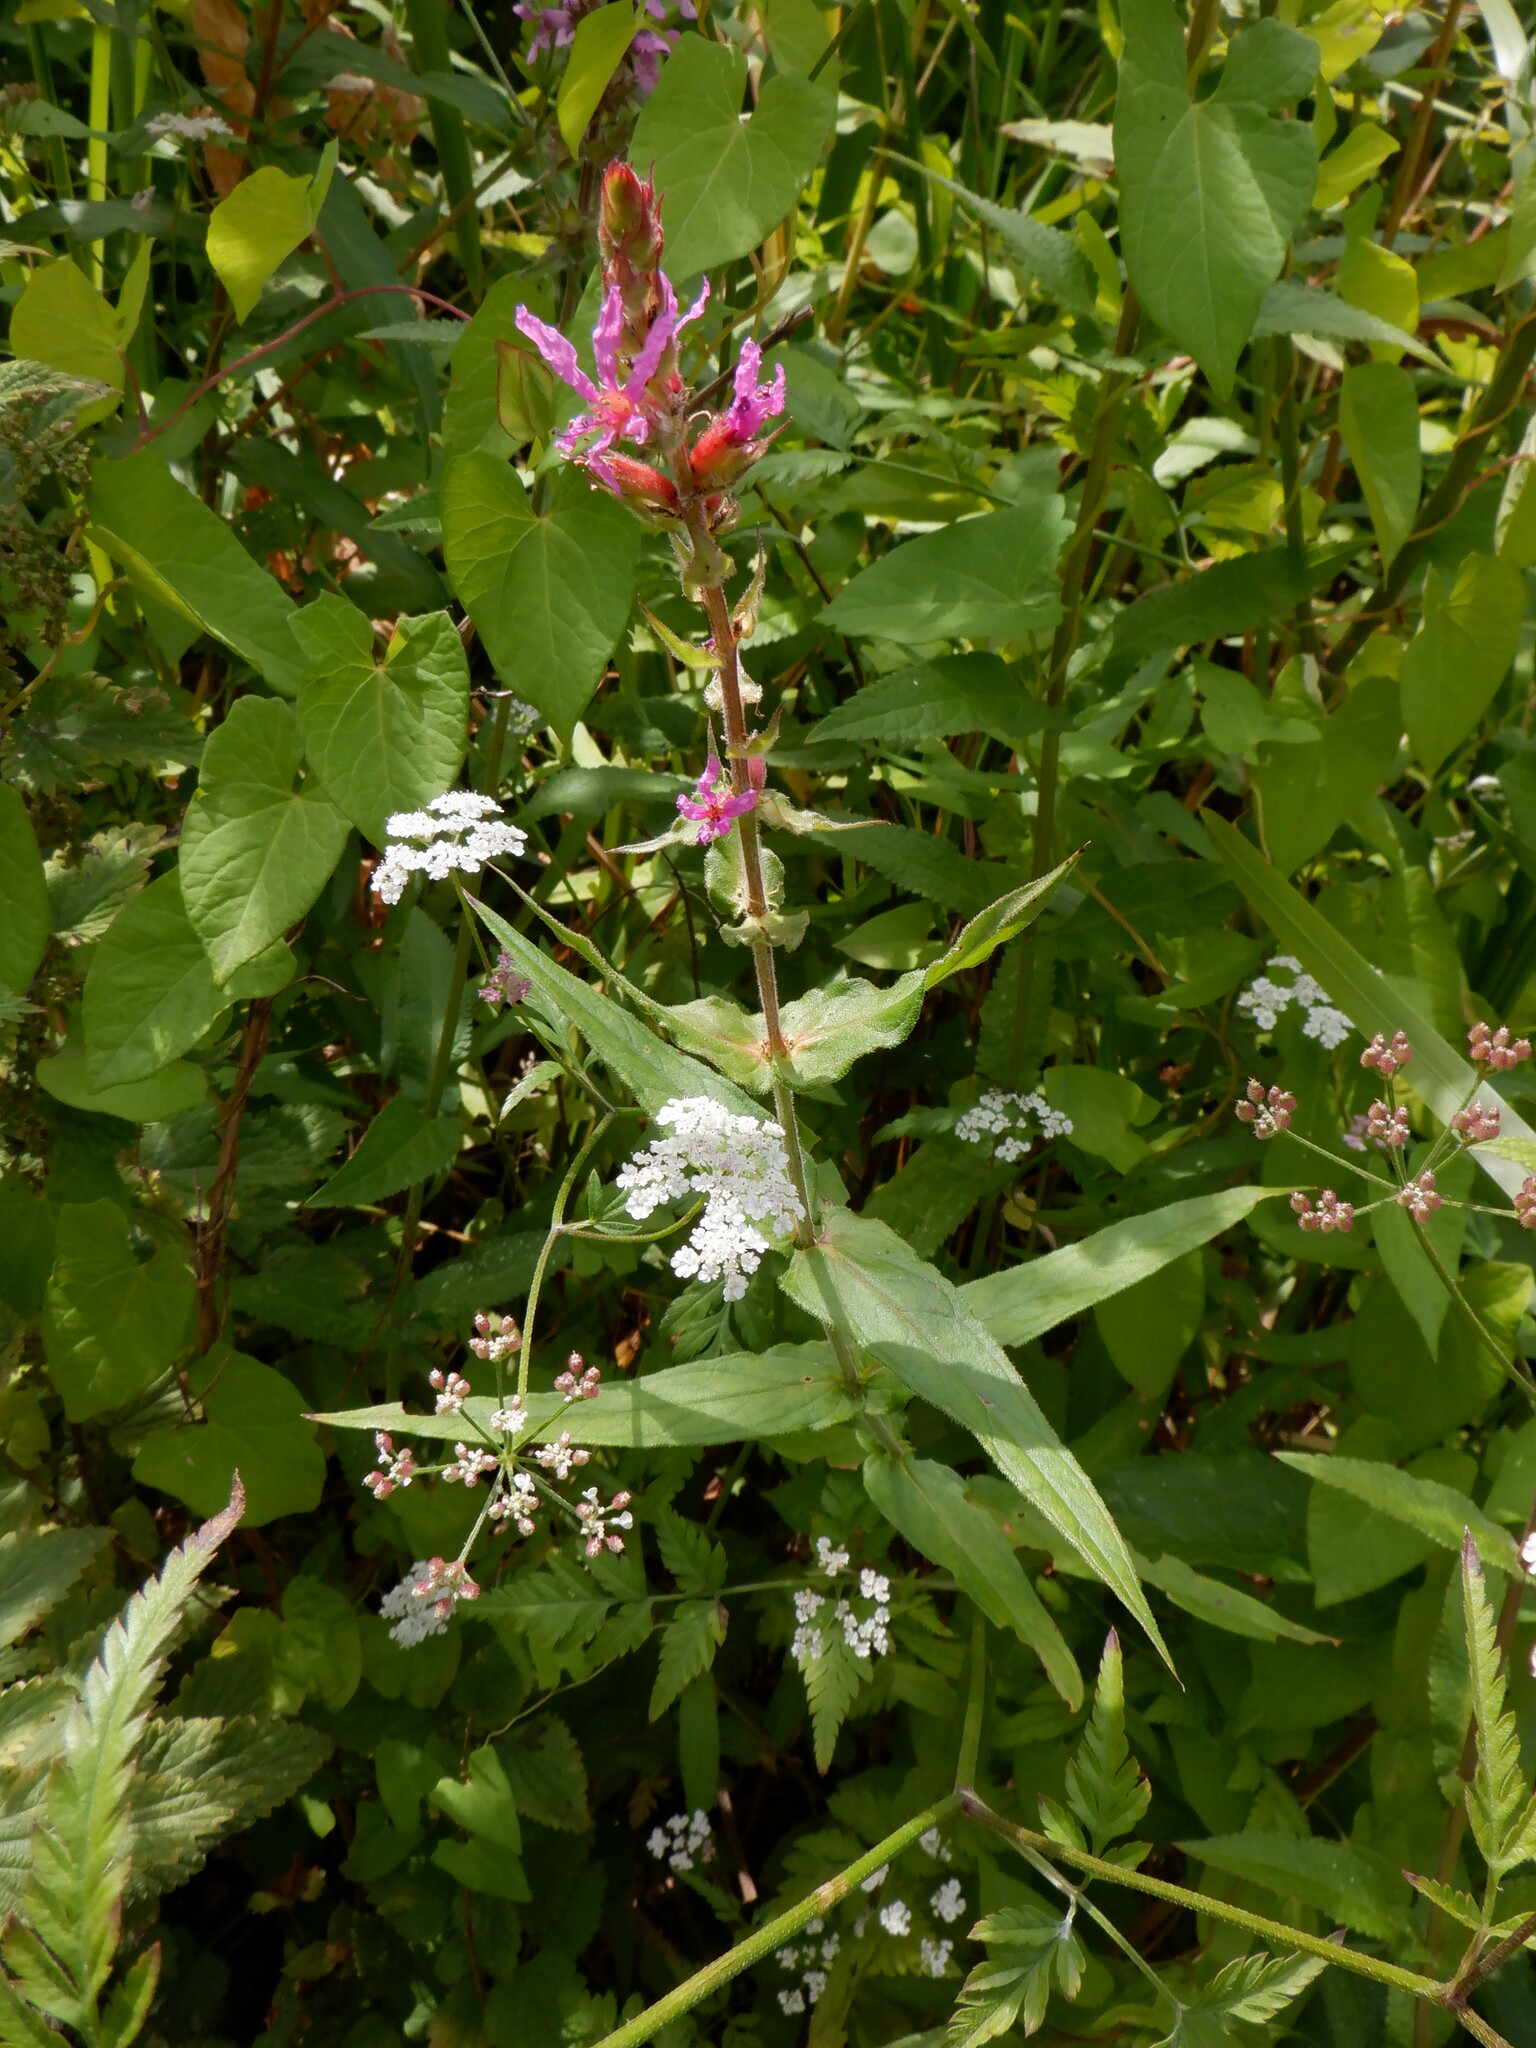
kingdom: Plantae
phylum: Tracheophyta
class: Magnoliopsida
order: Myrtales
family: Lythraceae
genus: Lythrum
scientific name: Lythrum salicaria
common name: Purple loosestrife
